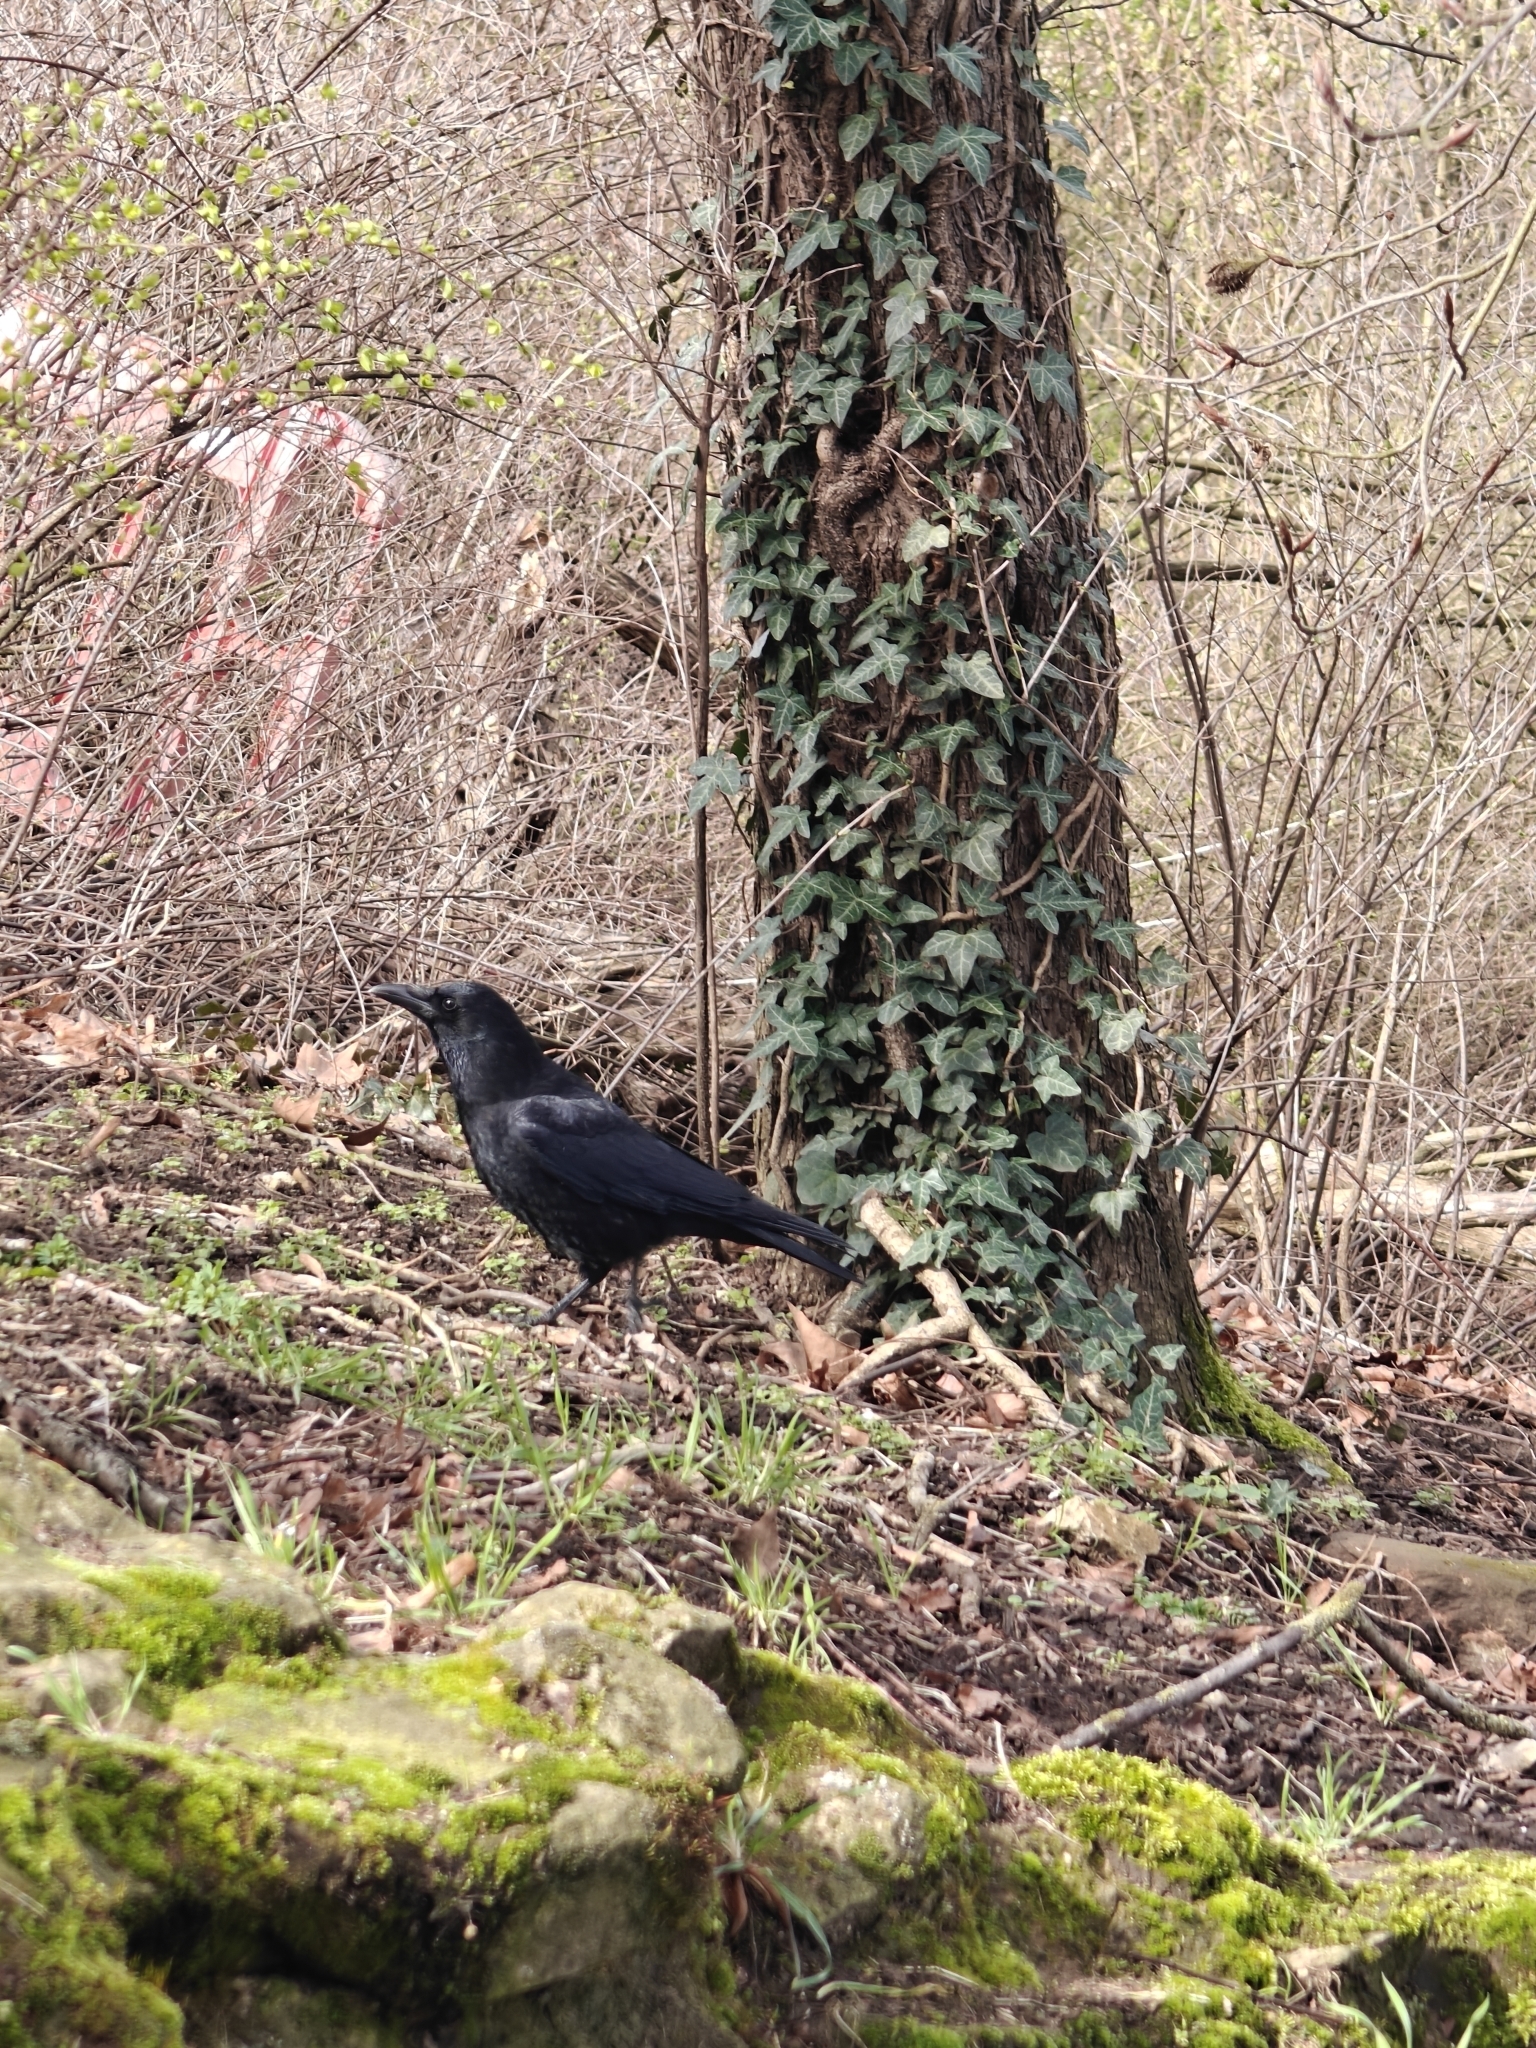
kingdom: Animalia
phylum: Chordata
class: Aves
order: Passeriformes
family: Corvidae
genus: Corvus
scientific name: Corvus corone
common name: Carrion crow
